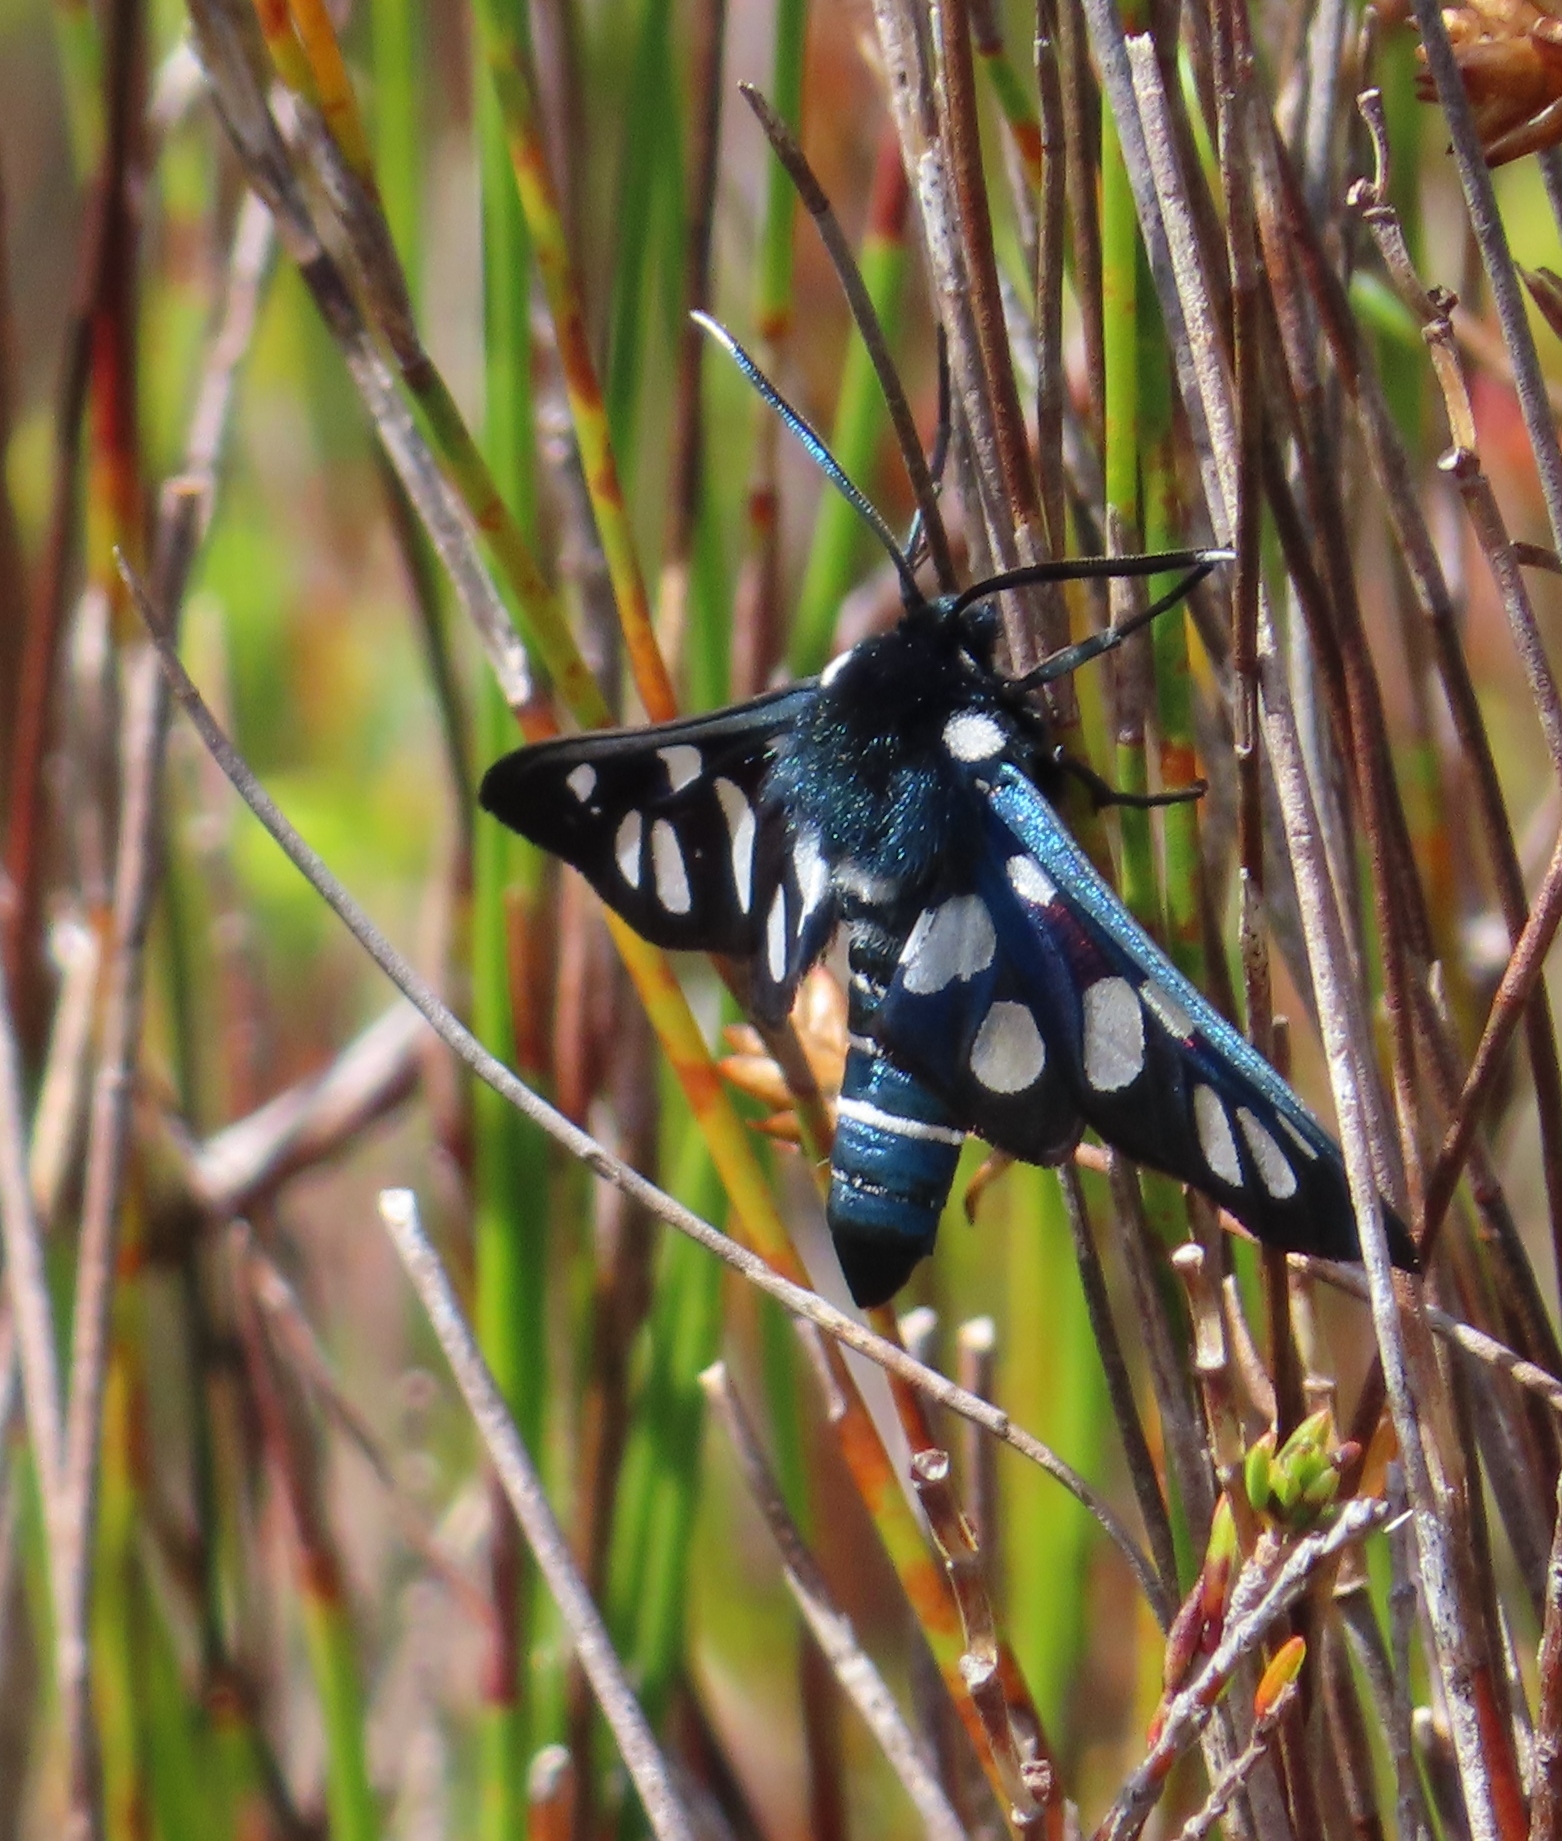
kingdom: Animalia
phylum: Arthropoda
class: Insecta
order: Lepidoptera
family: Erebidae
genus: Eutomis
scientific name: Eutomis minceus
